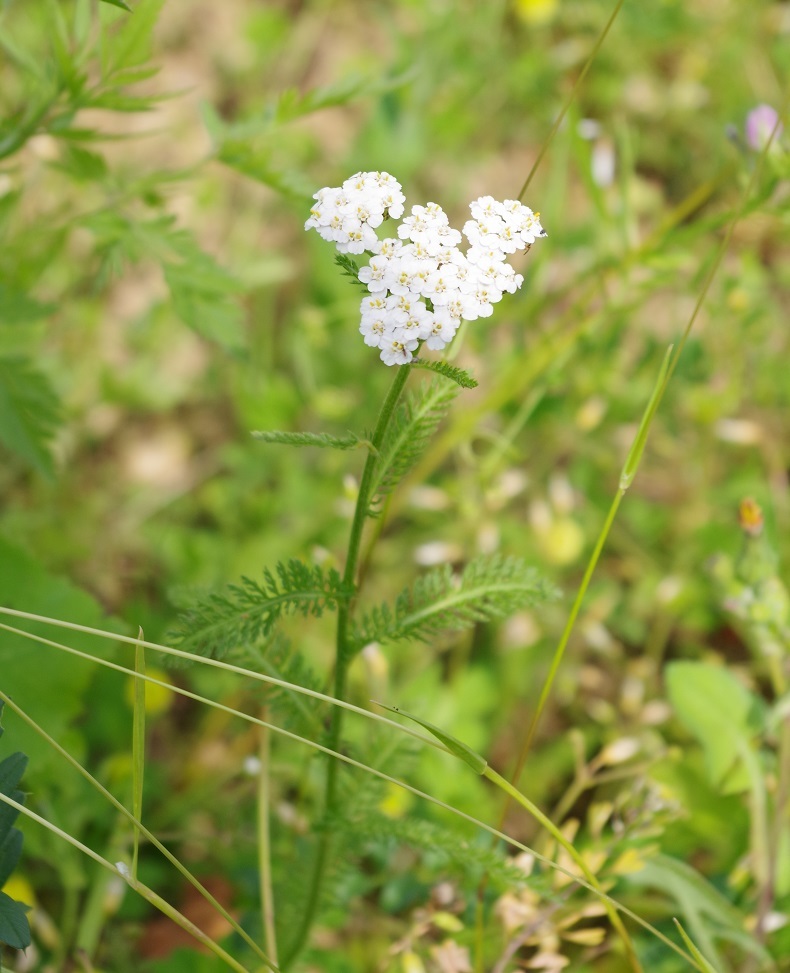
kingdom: Plantae
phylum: Tracheophyta
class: Magnoliopsida
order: Asterales
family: Asteraceae
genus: Achillea
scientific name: Achillea millefolium
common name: Yarrow
